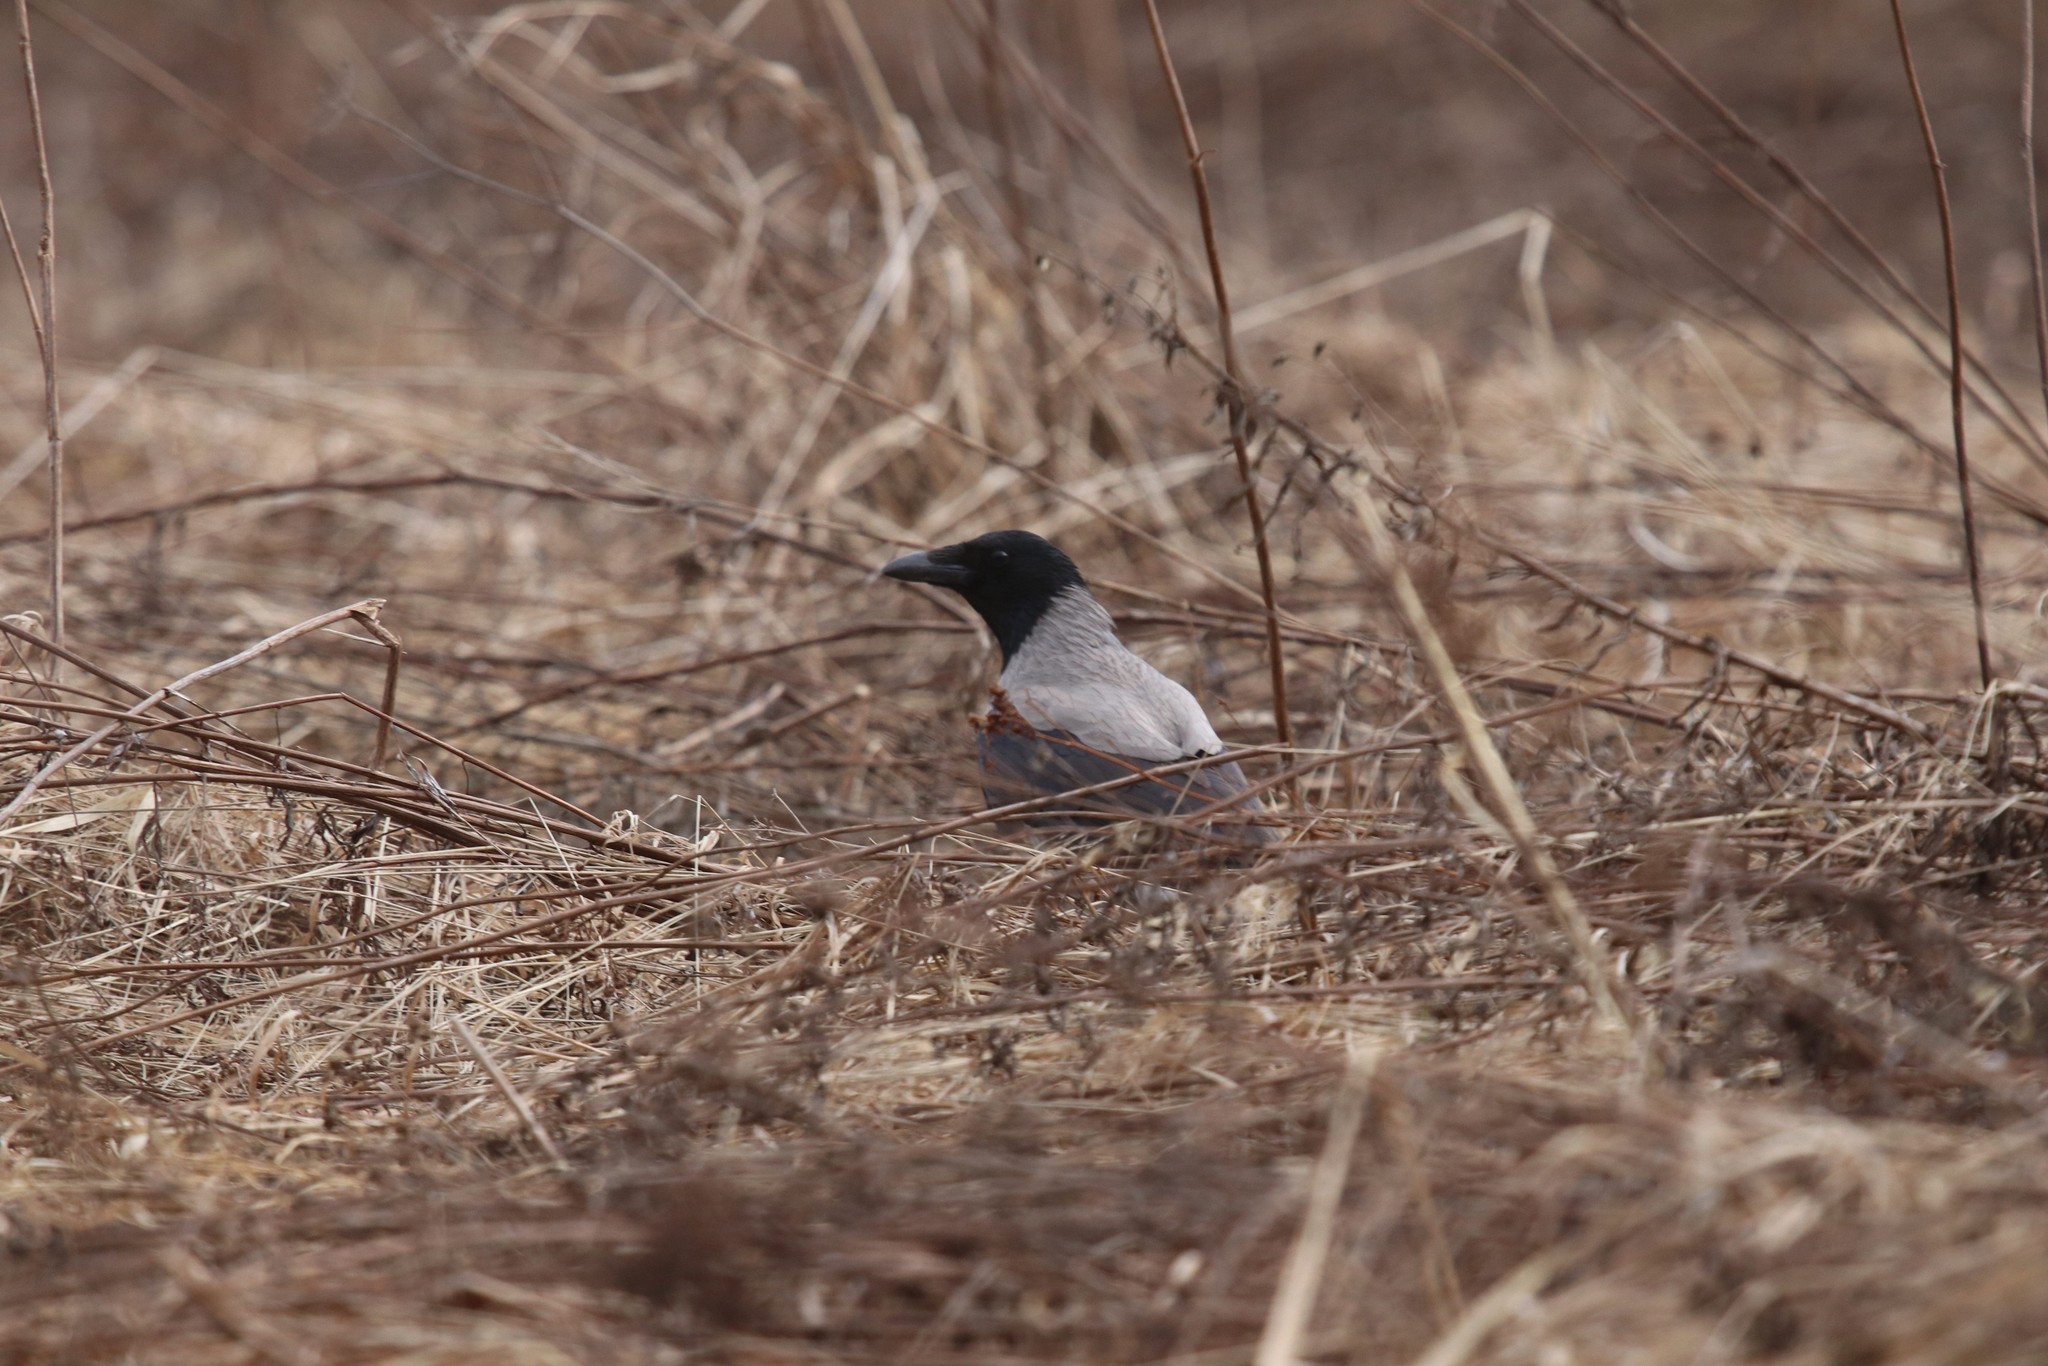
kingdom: Animalia
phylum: Chordata
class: Aves
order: Passeriformes
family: Corvidae
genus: Corvus
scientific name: Corvus cornix
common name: Hooded crow
